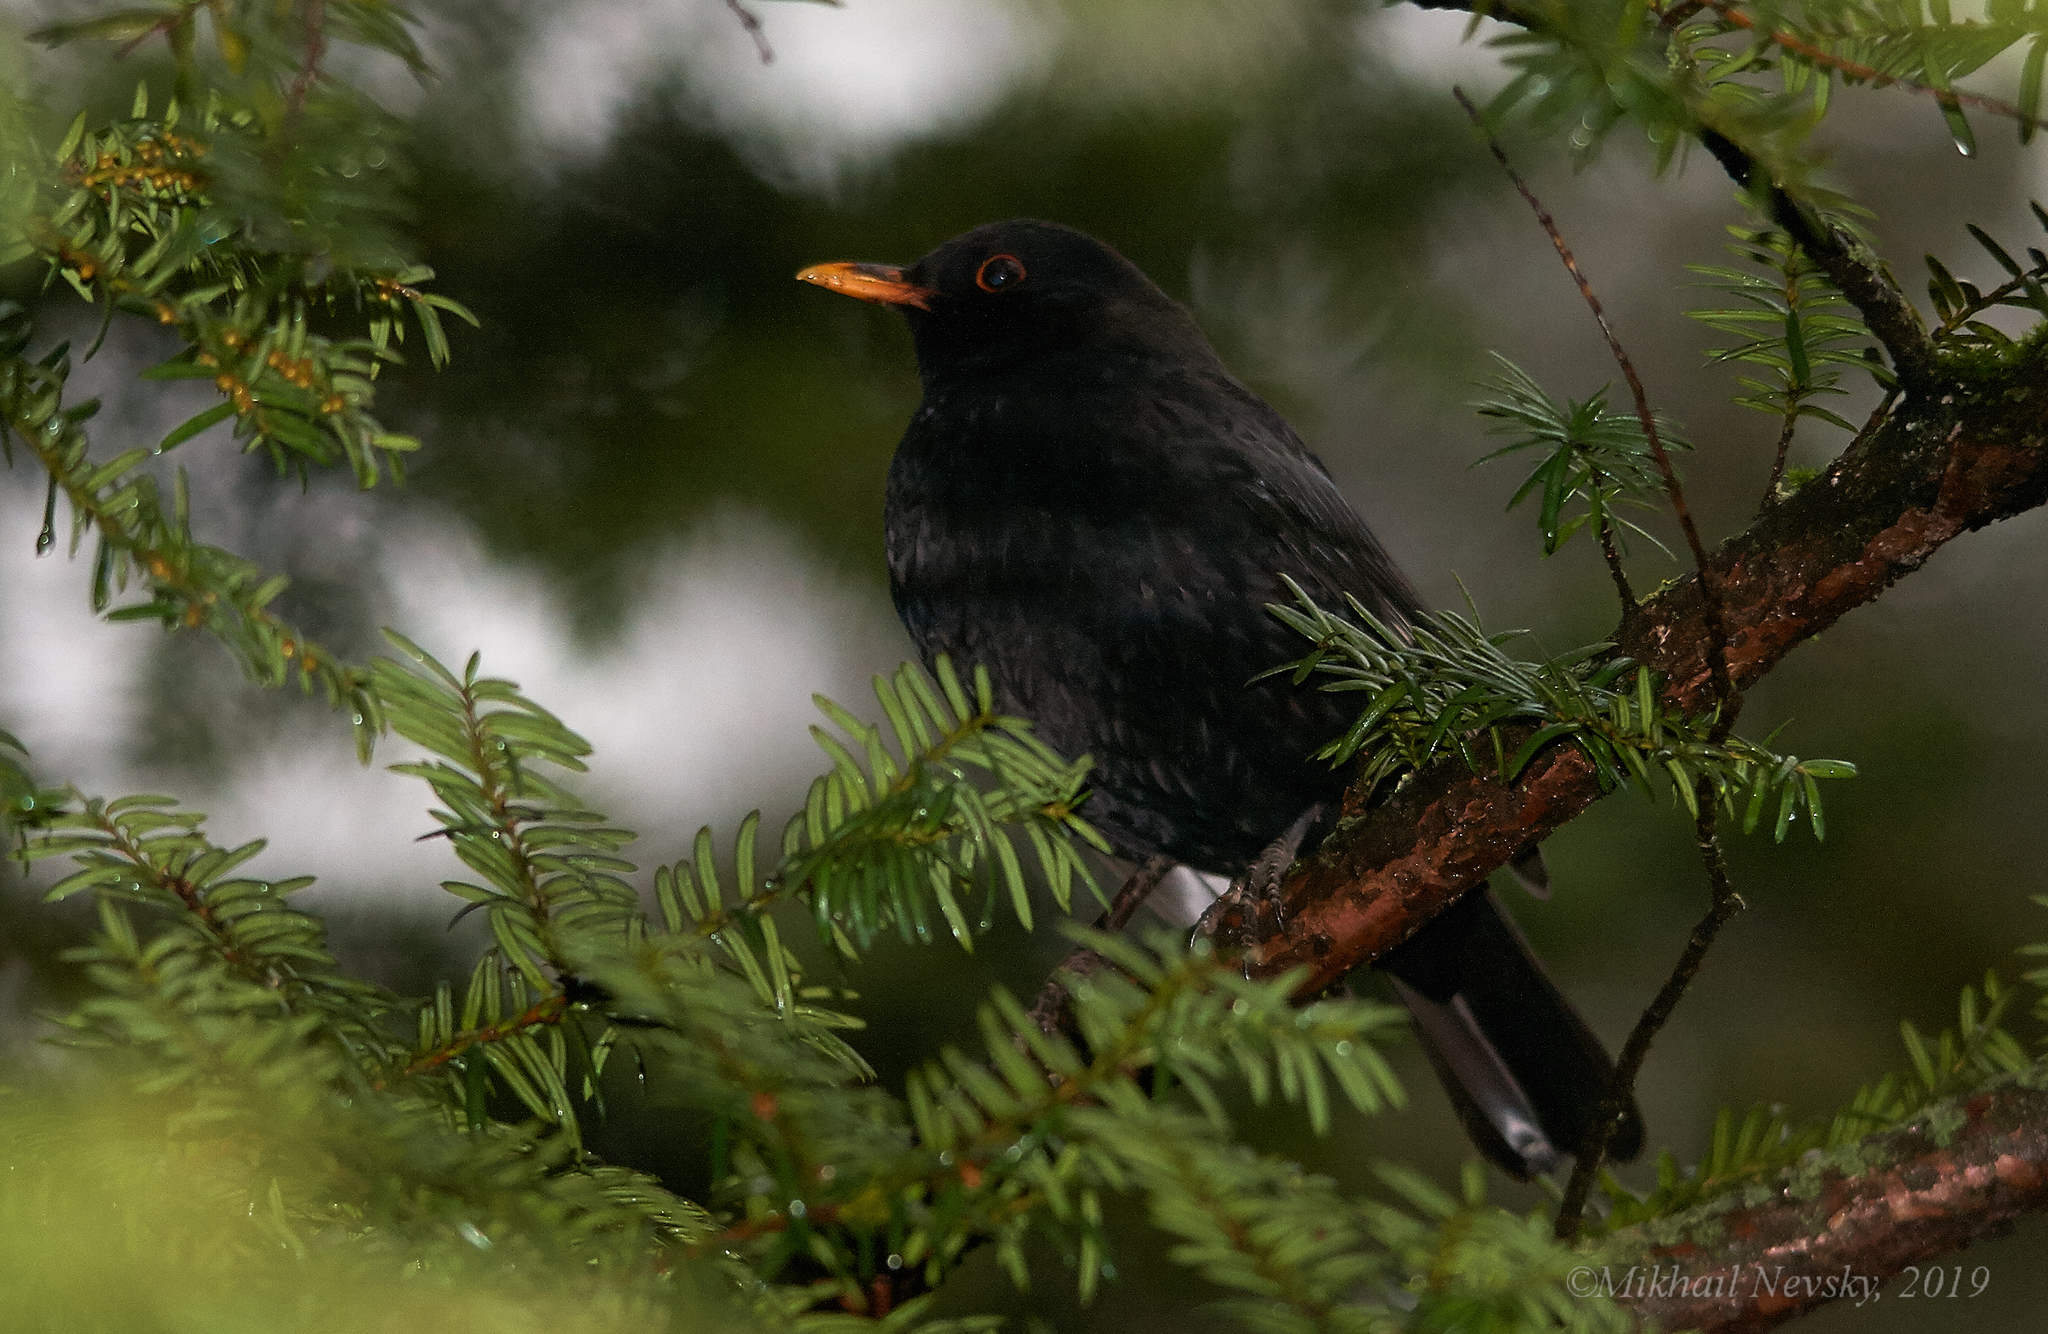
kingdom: Animalia
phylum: Chordata
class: Aves
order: Passeriformes
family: Turdidae
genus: Turdus
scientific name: Turdus merula
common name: Common blackbird
